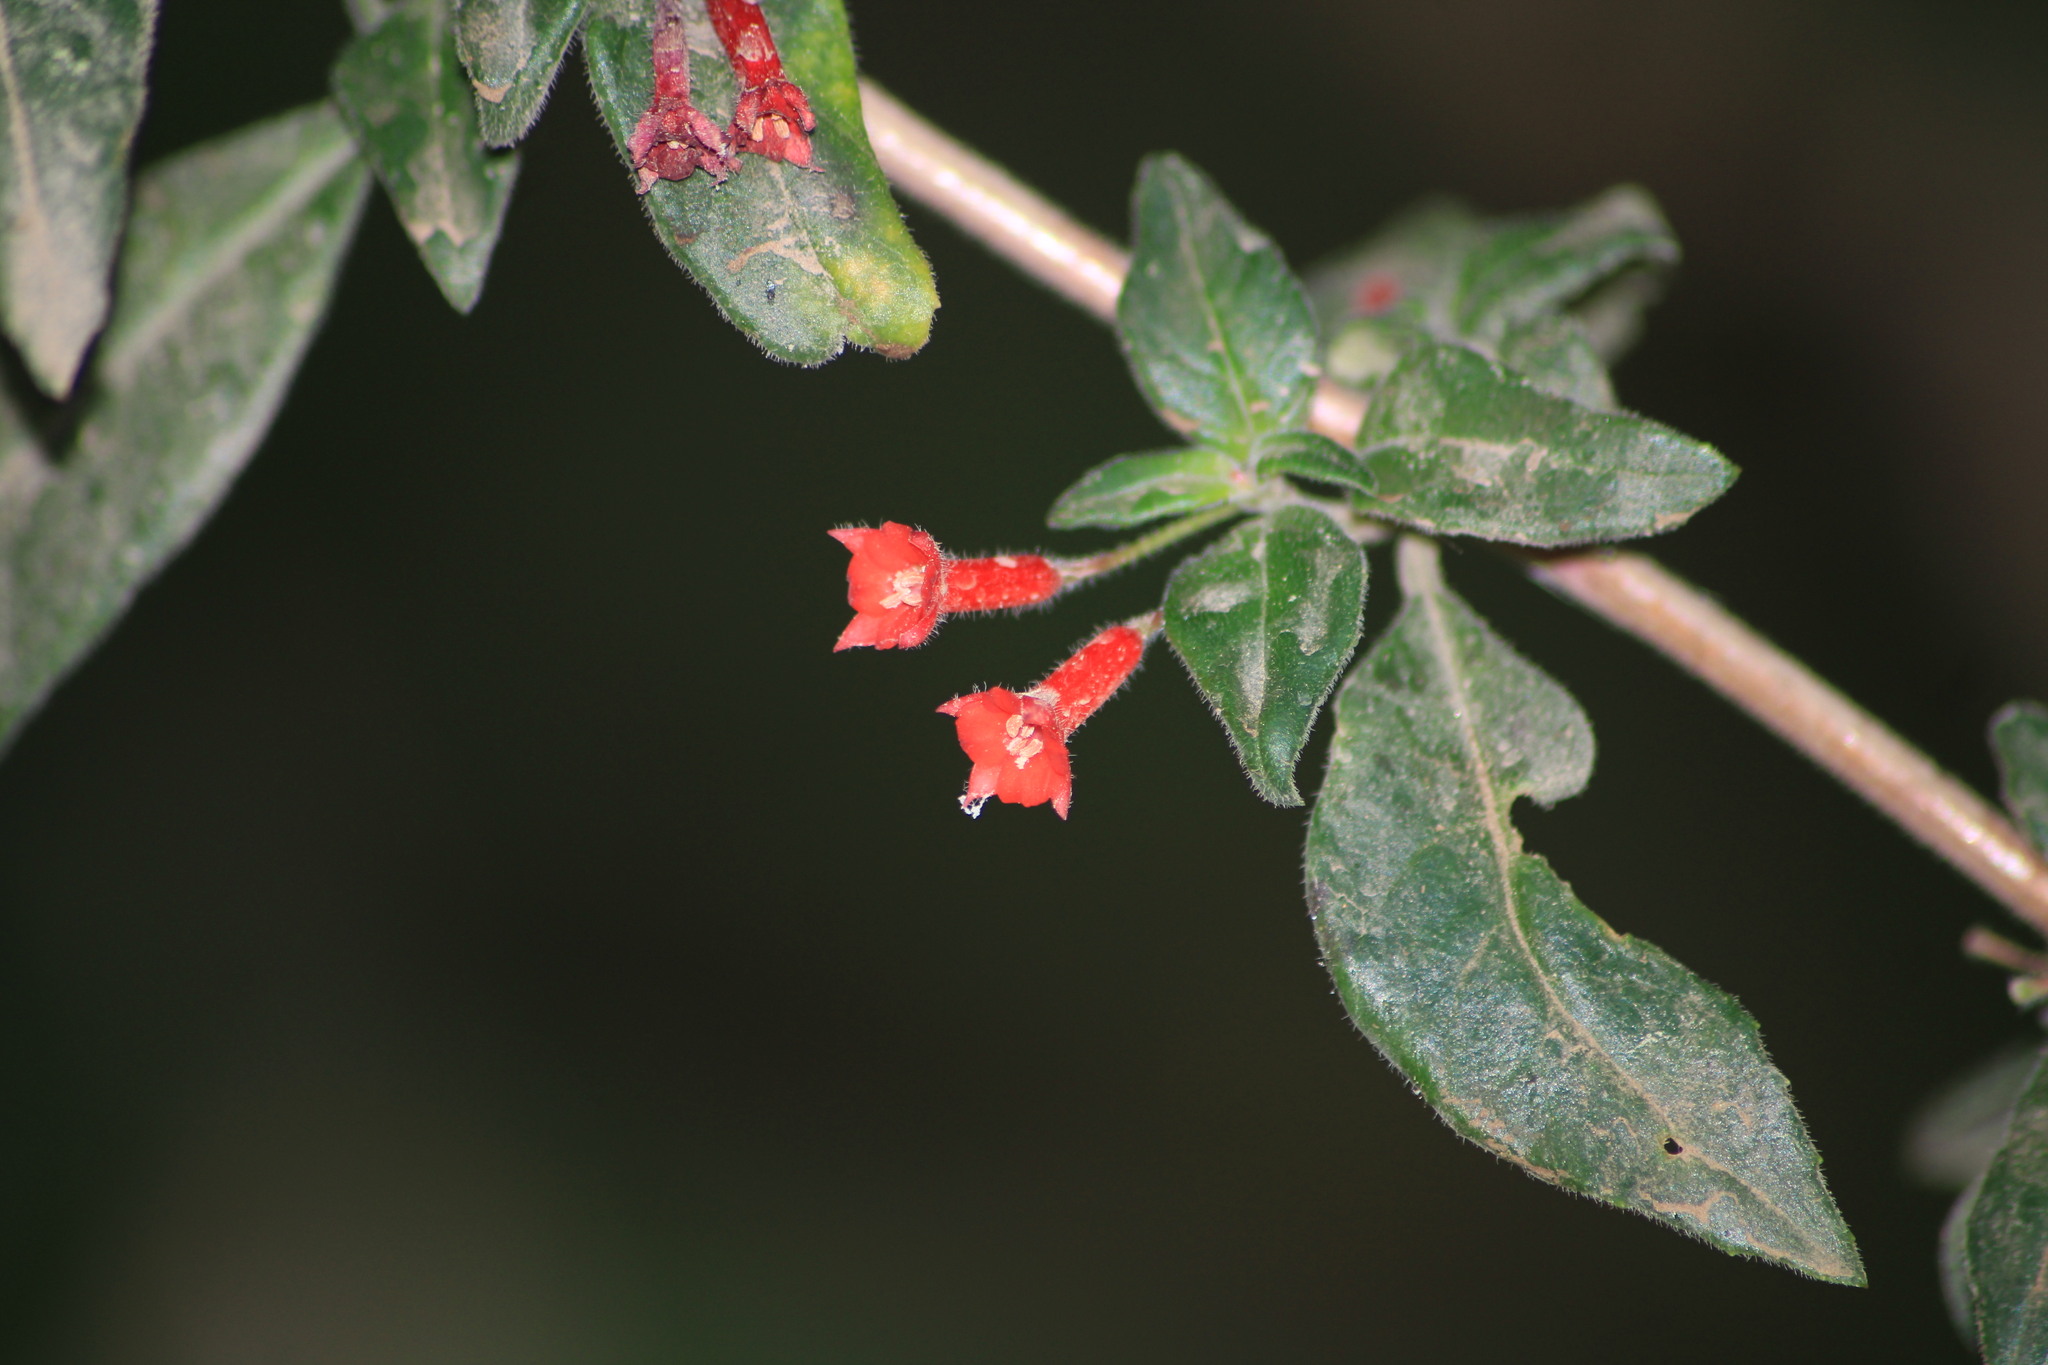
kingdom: Plantae
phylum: Tracheophyta
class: Magnoliopsida
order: Gentianales
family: Rubiaceae
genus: Bouvardia
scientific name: Bouvardia ternifolia
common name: Scarlet bouvardia
